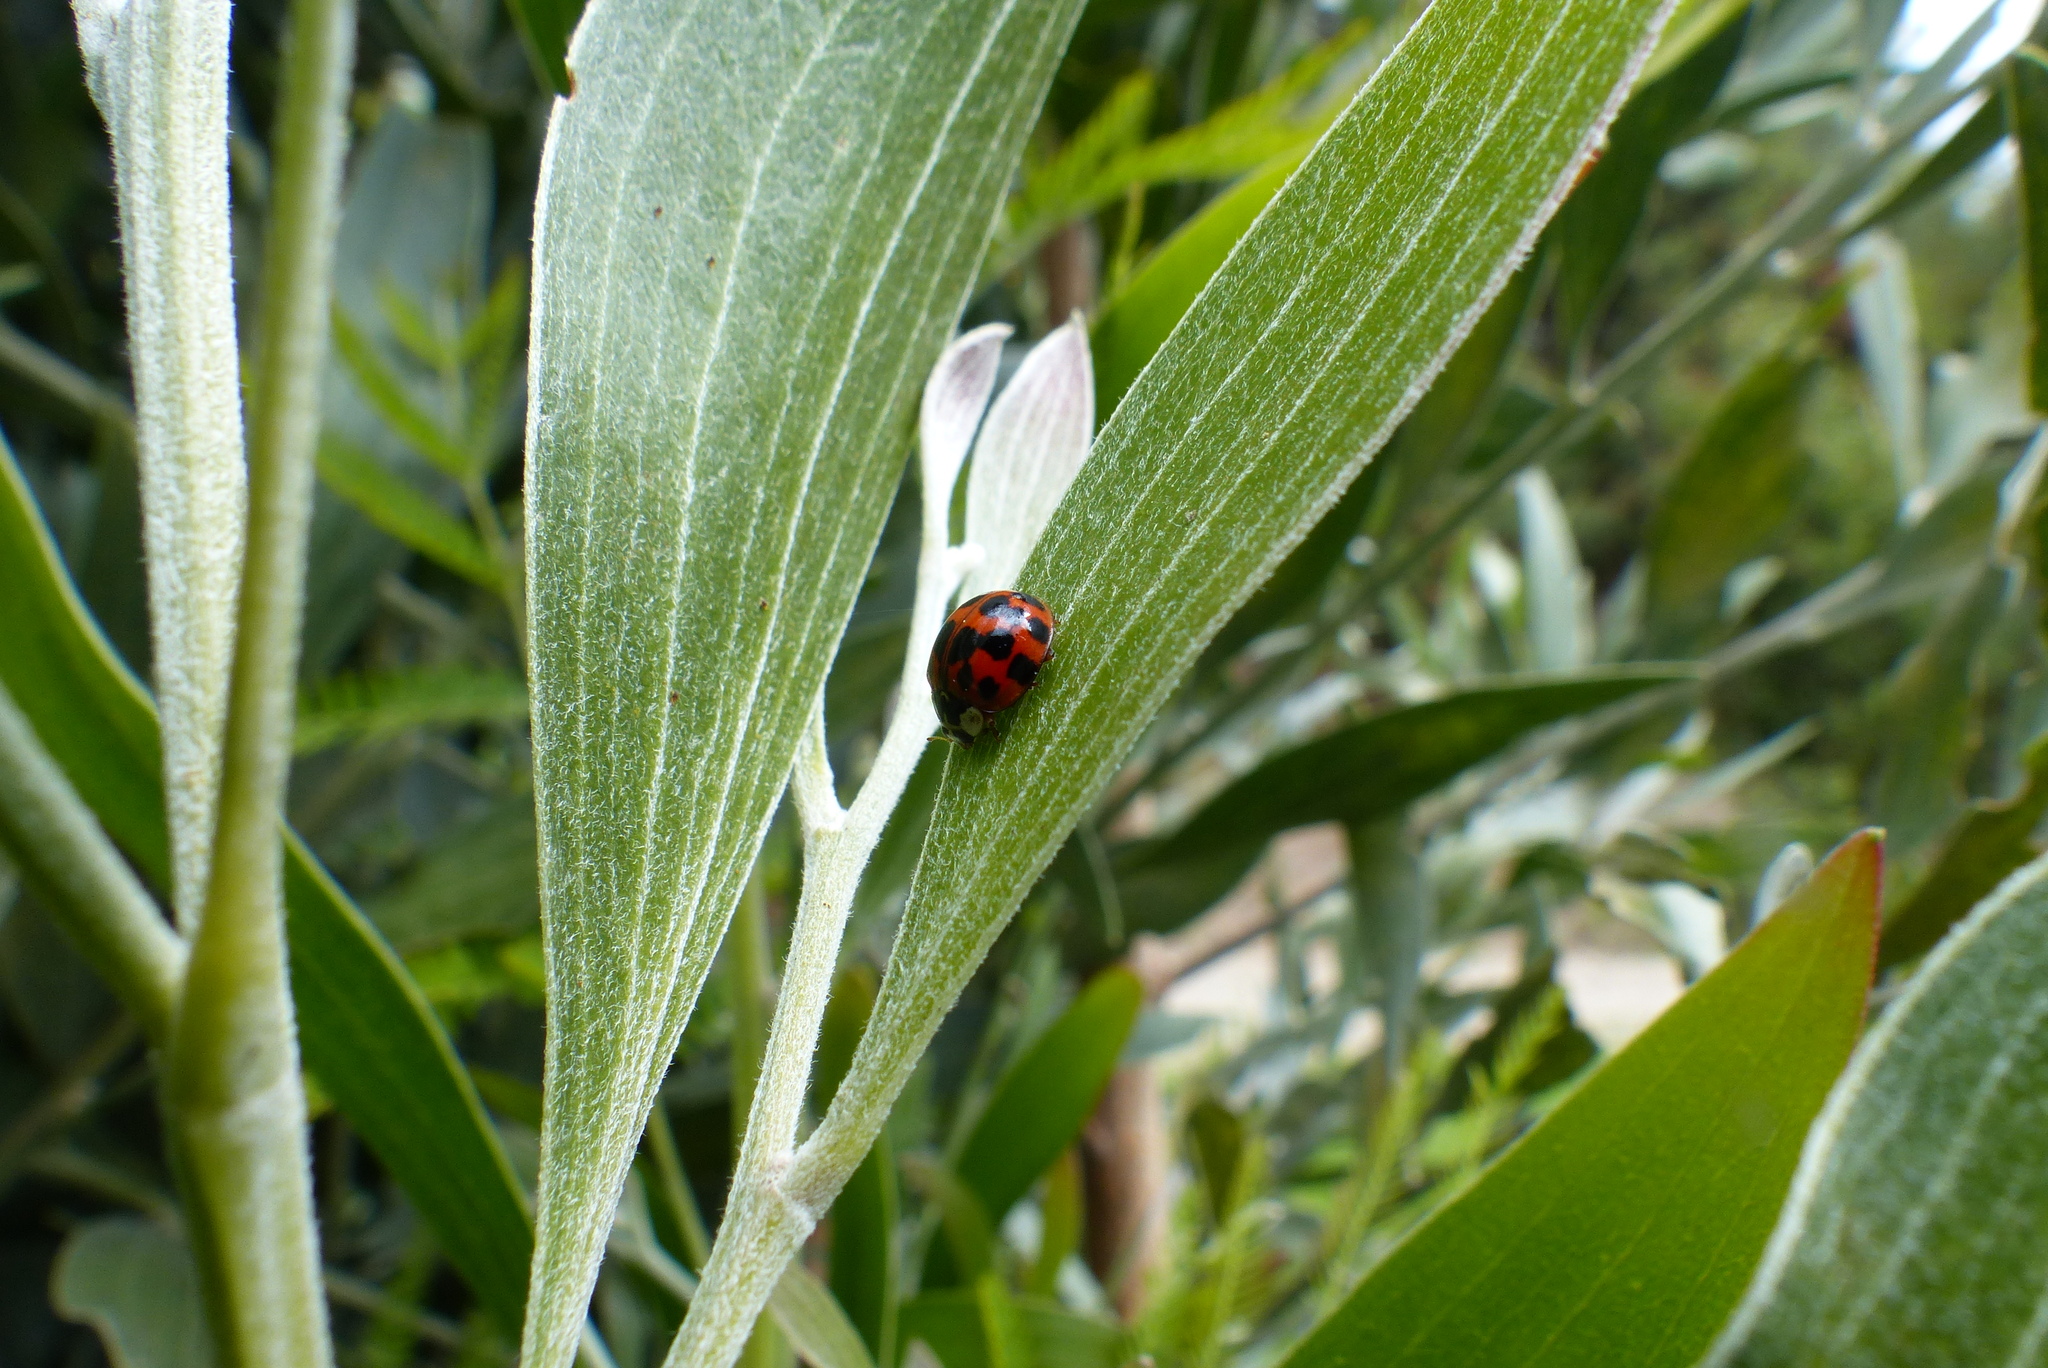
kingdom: Animalia
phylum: Arthropoda
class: Insecta
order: Coleoptera
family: Coccinellidae
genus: Harmonia
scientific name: Harmonia axyridis
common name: Harlequin ladybird
